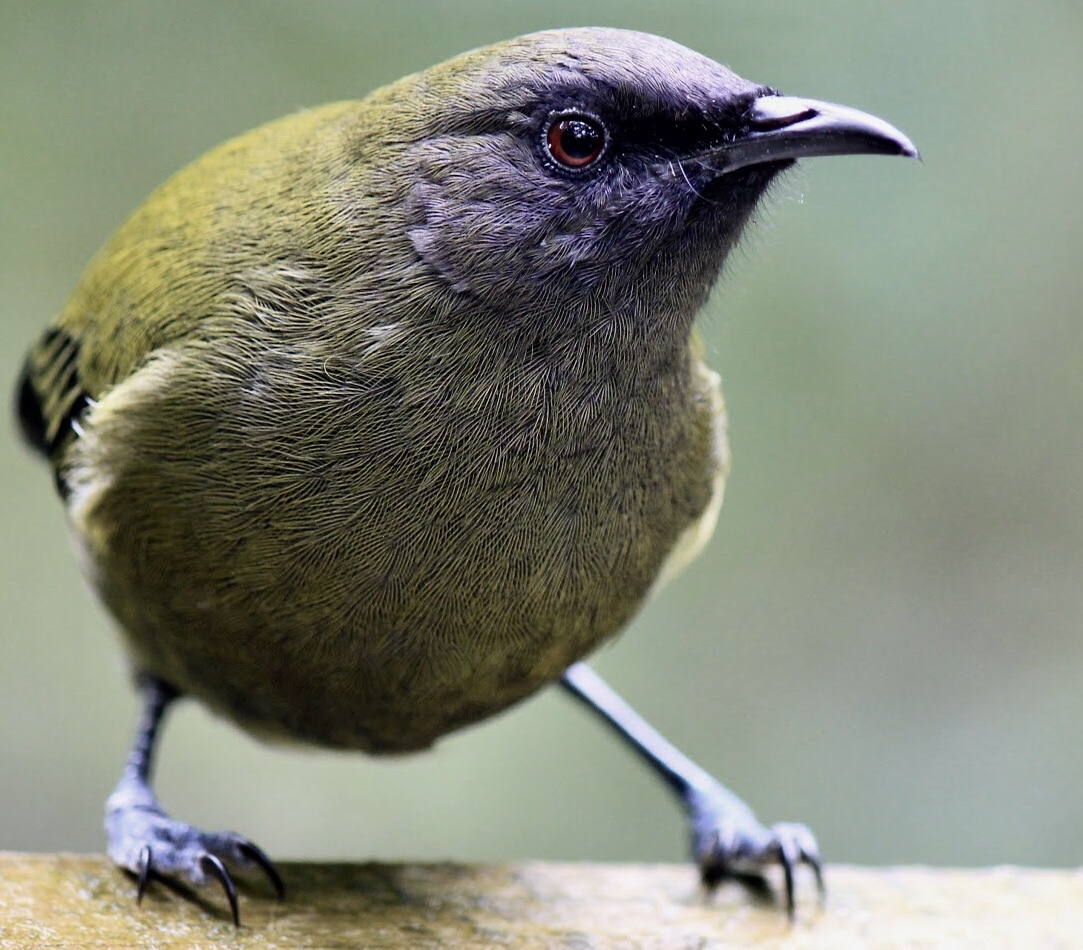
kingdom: Animalia
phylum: Chordata
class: Aves
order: Passeriformes
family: Meliphagidae
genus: Anthornis
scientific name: Anthornis melanura
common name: New zealand bellbird
